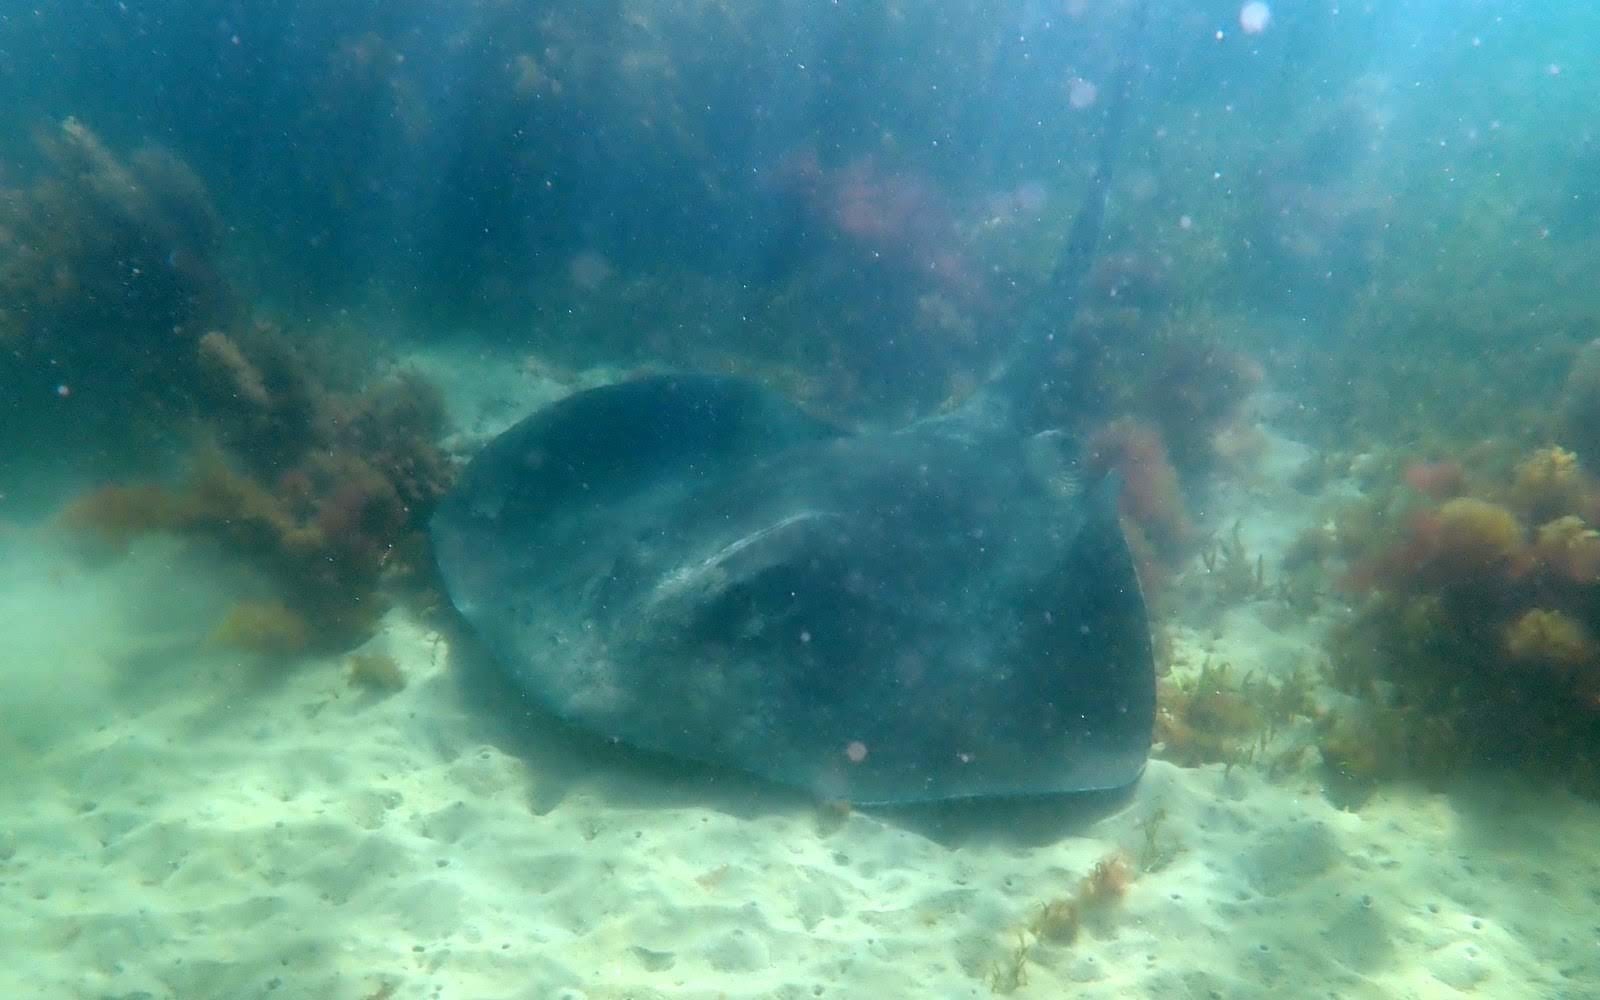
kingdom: Animalia
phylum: Chordata
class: Elasmobranchii
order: Myliobatiformes
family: Dasyatidae
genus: Bathytoshia
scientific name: Bathytoshia brevicaudata
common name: Short-tail stingray
